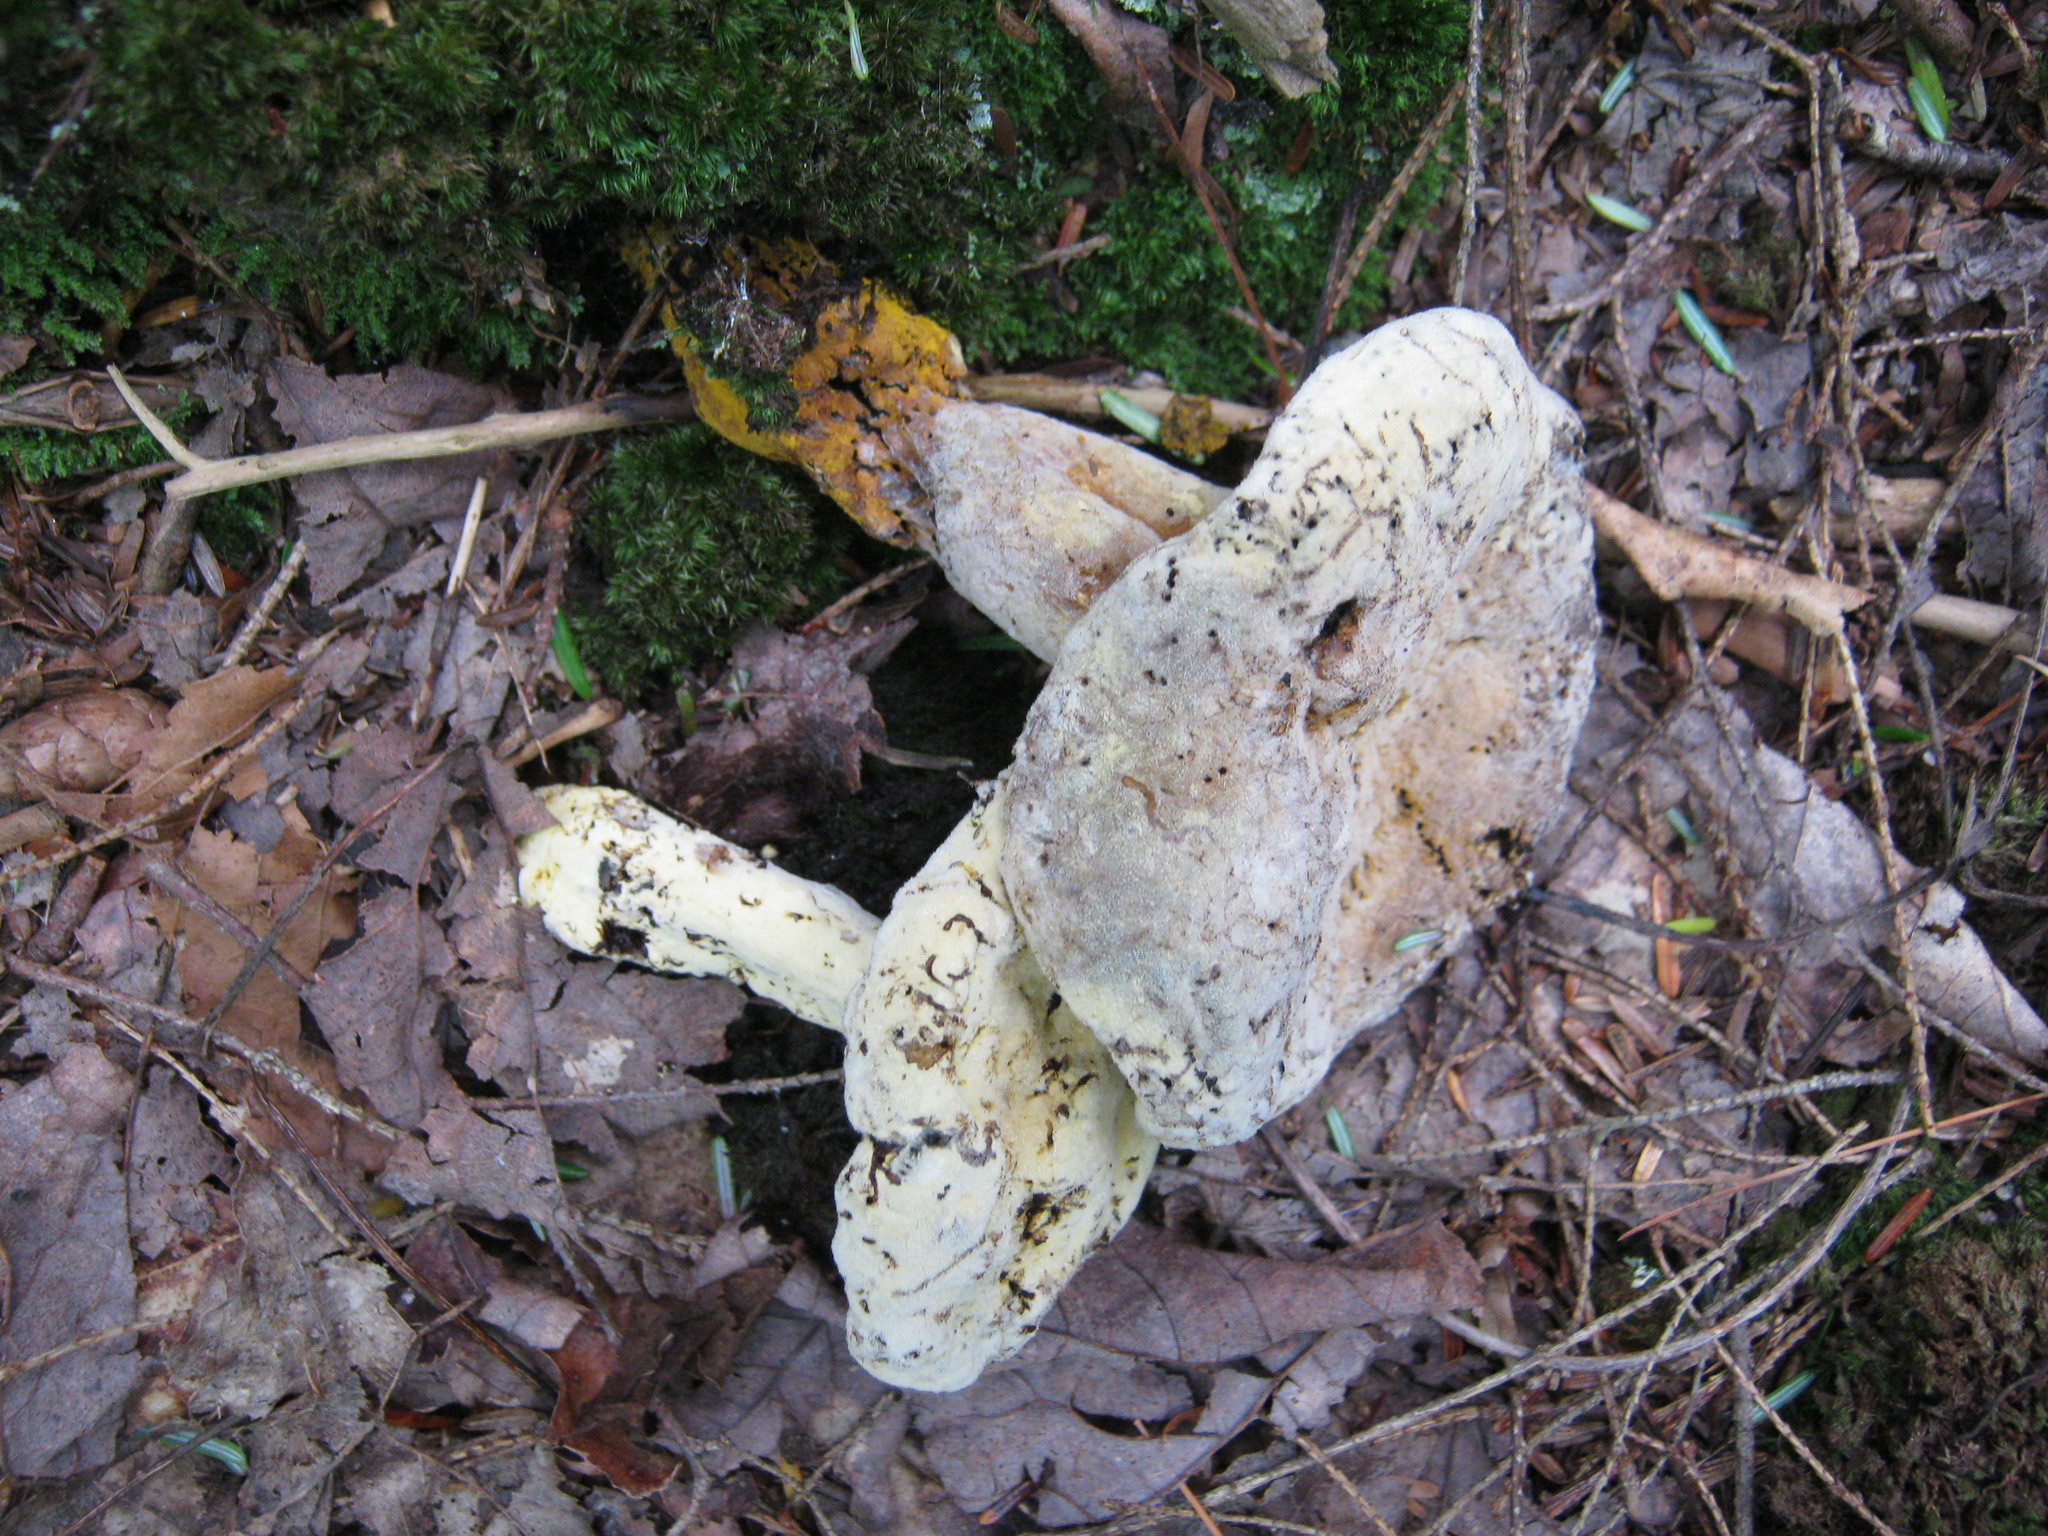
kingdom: Fungi
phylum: Ascomycota
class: Sordariomycetes
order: Hypocreales
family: Hypocreaceae
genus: Hypomyces
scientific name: Hypomyces chrysospermus
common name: Bolete mould
